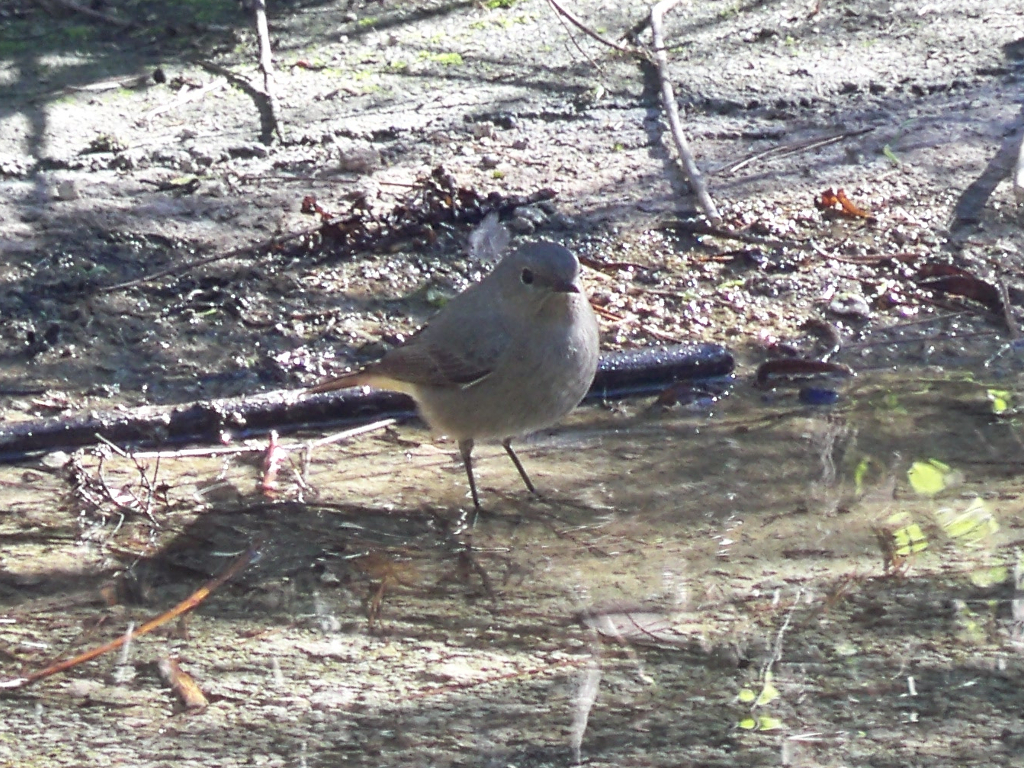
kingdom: Animalia
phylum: Chordata
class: Aves
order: Passeriformes
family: Muscicapidae
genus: Phoenicurus
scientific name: Phoenicurus ochruros
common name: Black redstart
